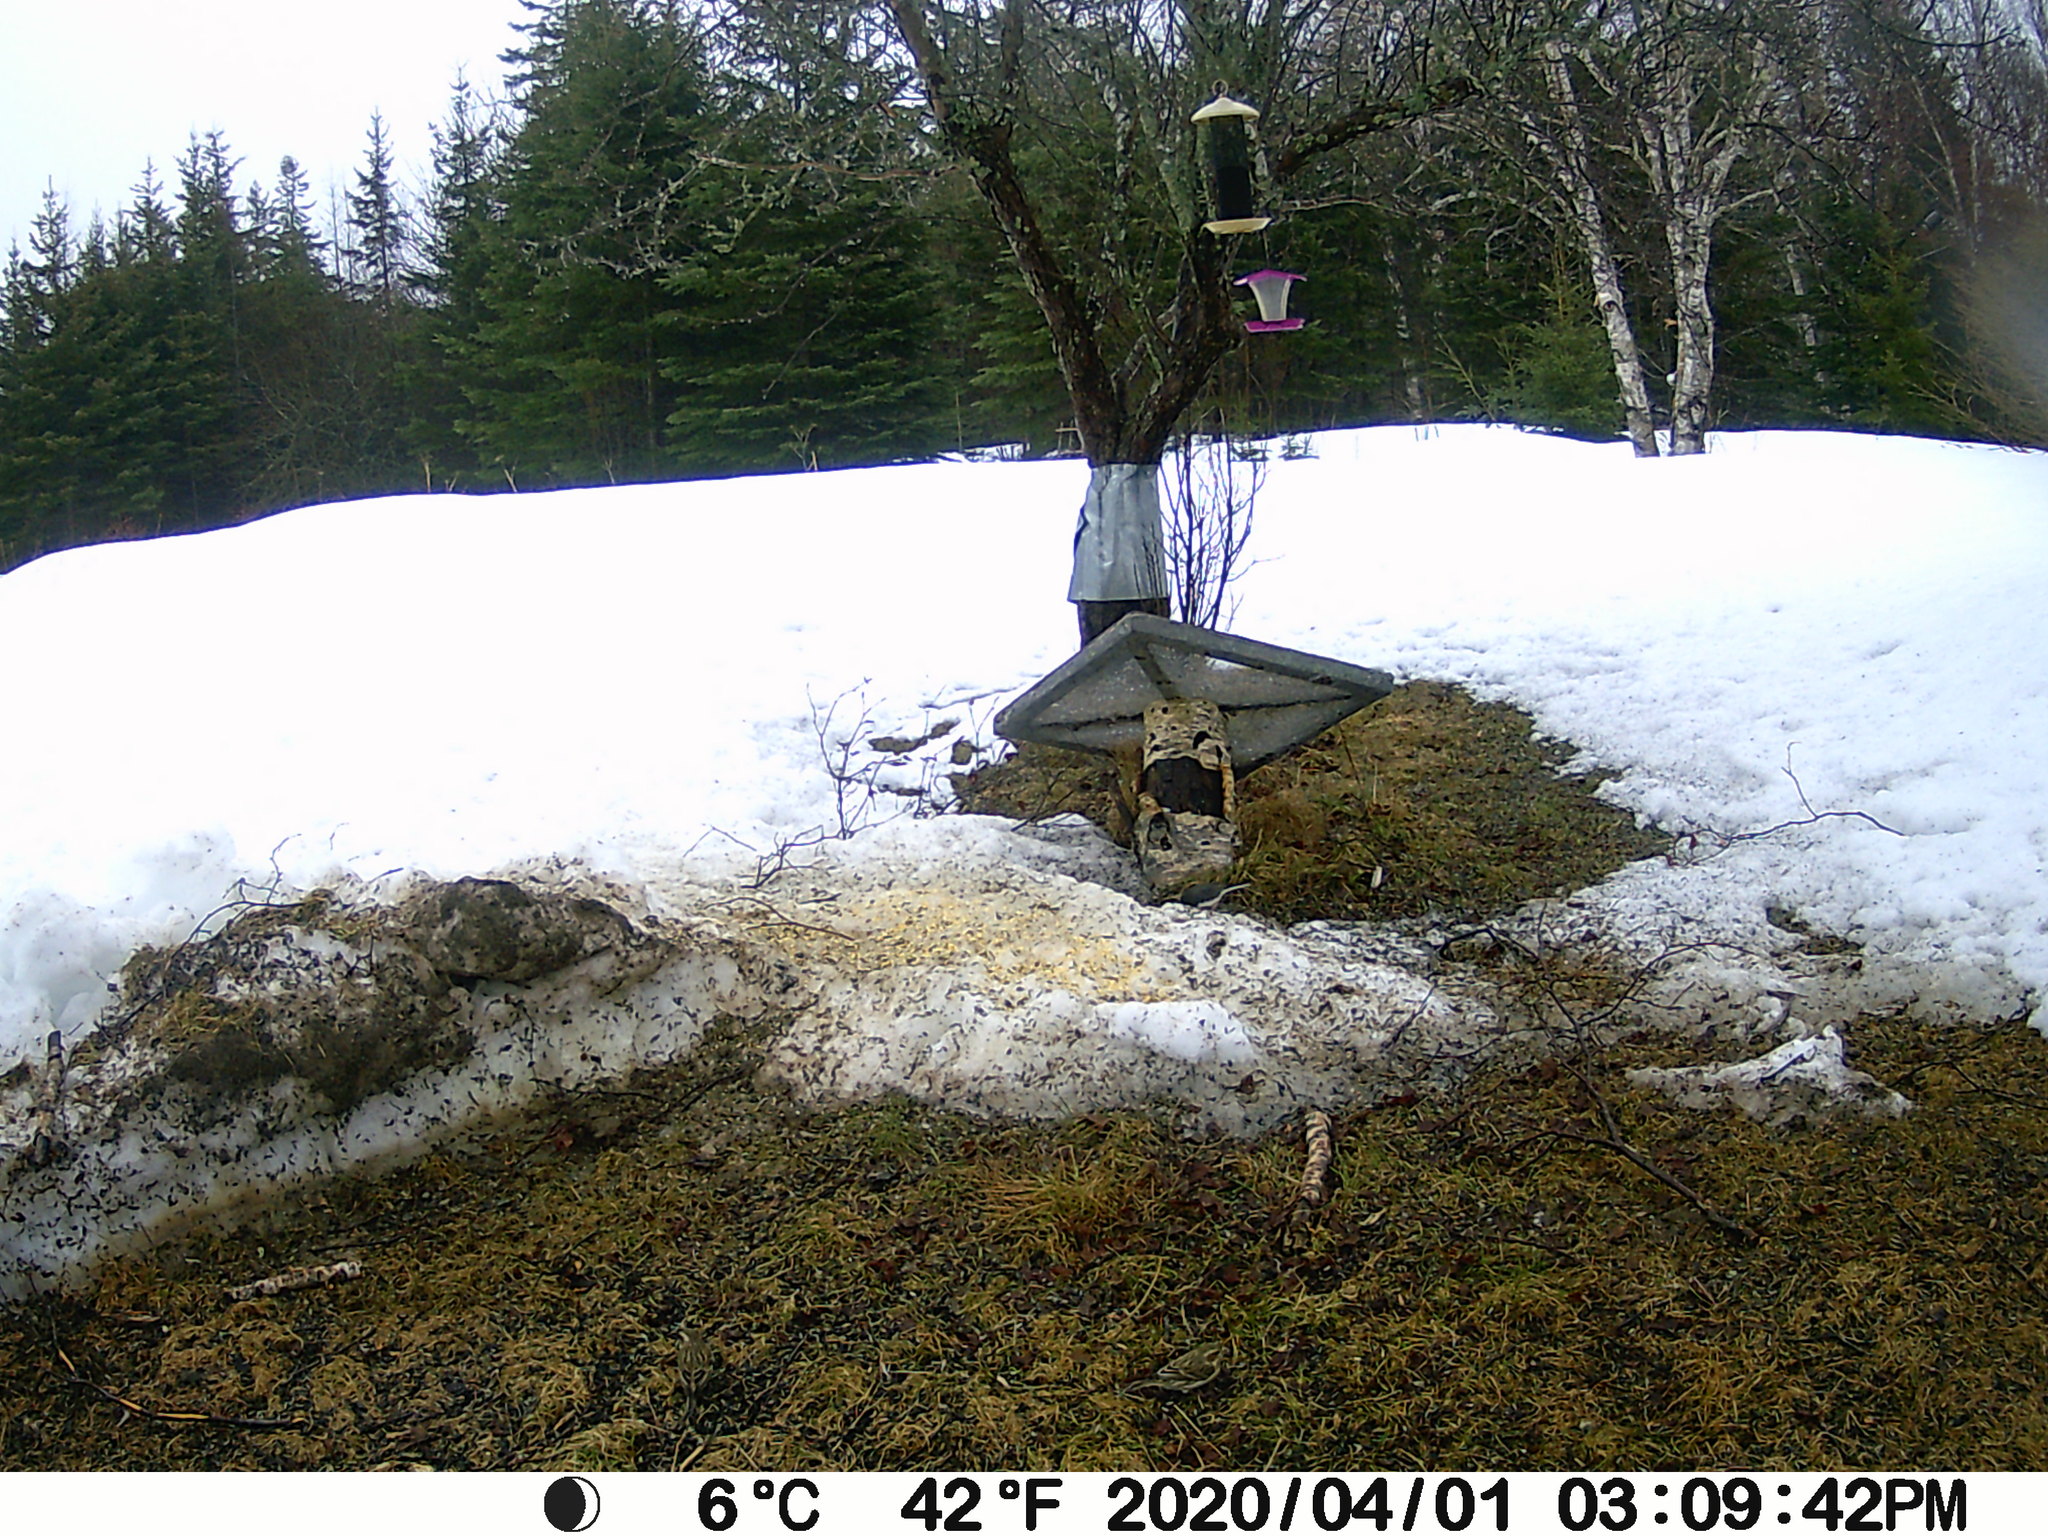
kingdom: Animalia
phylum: Chordata
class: Aves
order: Passeriformes
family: Fringillidae
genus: Haemorhous
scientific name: Haemorhous purpureus
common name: Purple finch
